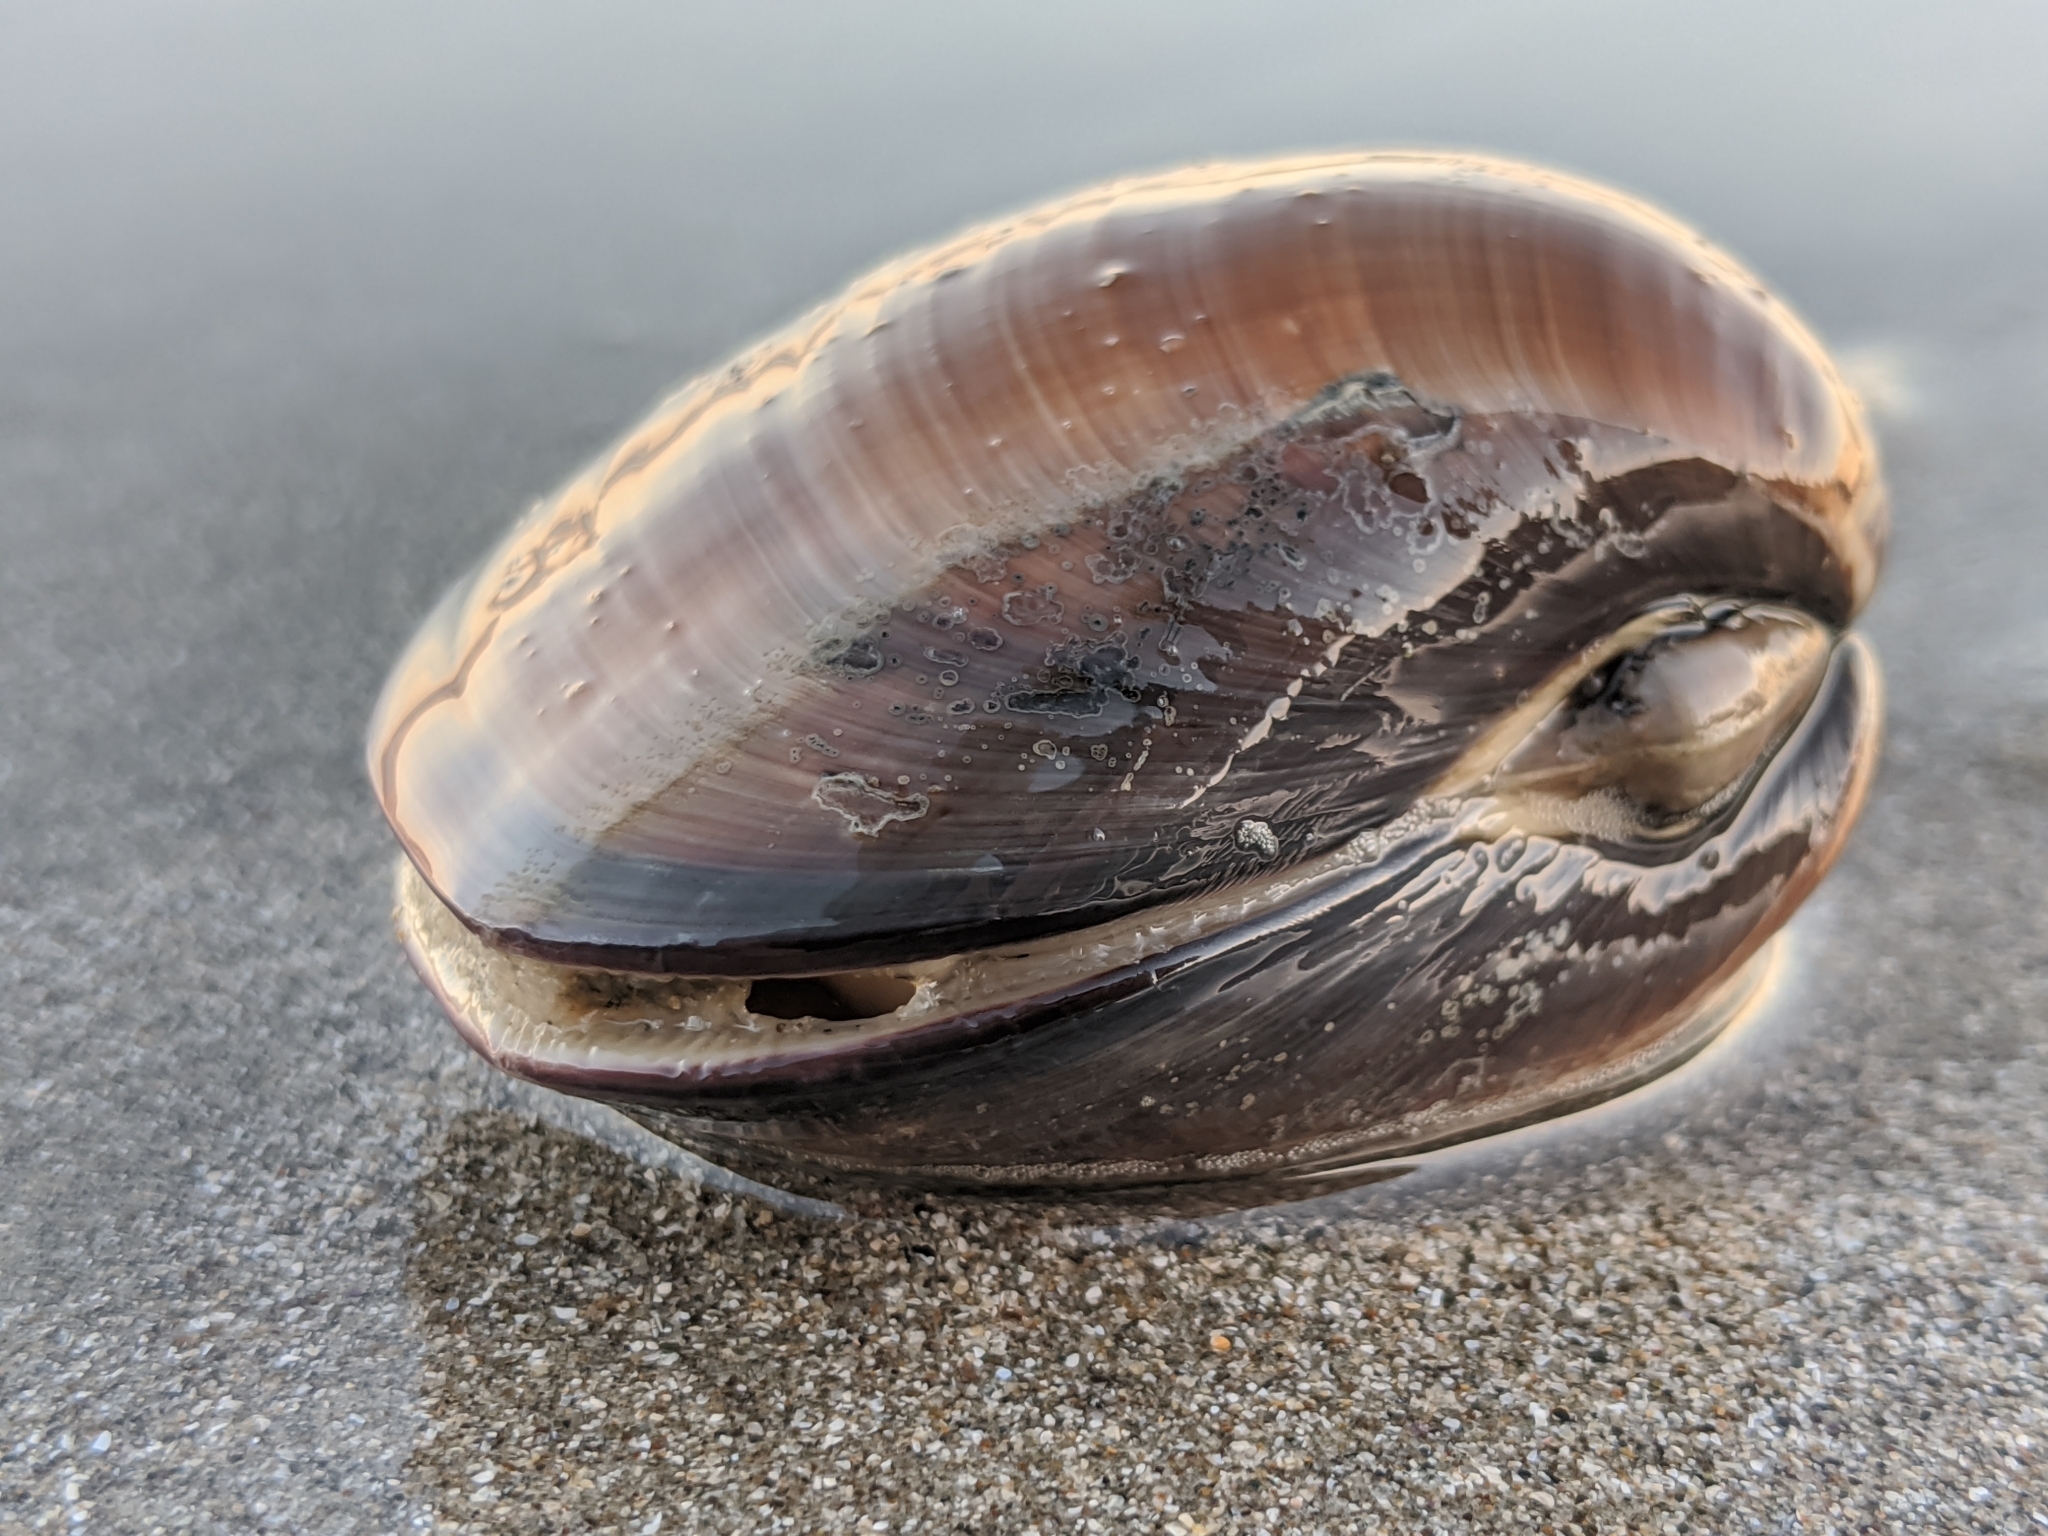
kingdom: Animalia
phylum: Mollusca
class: Bivalvia
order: Venerida
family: Veneridae
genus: Tivela
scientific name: Tivela stultorum
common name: Pismo clam
